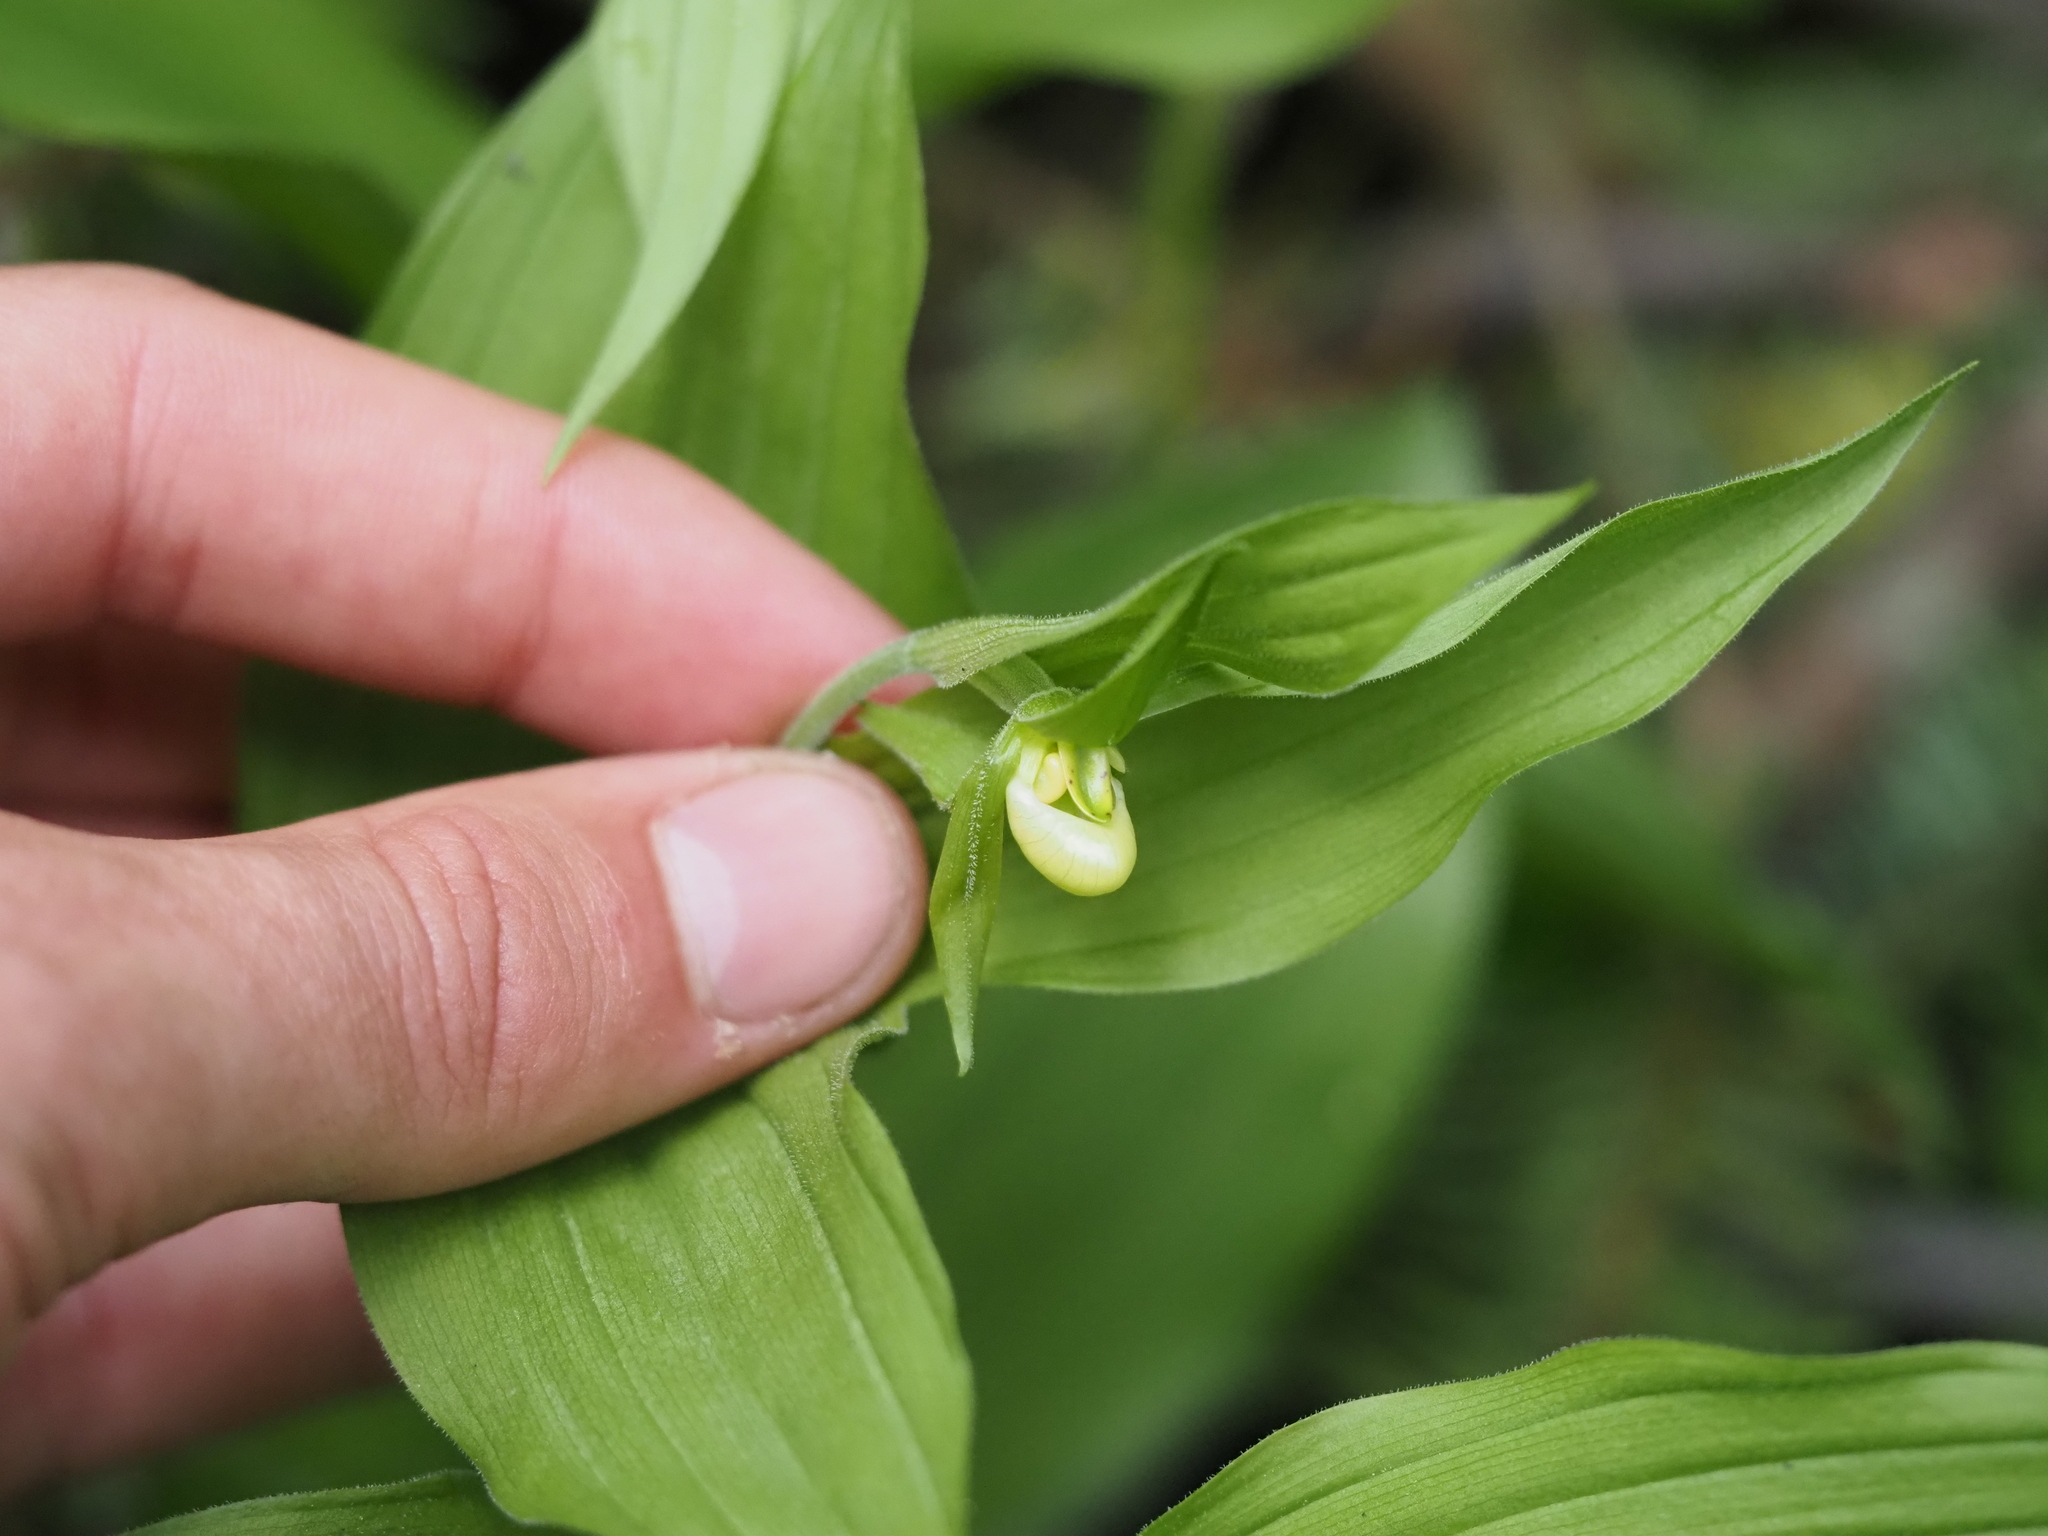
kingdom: Plantae
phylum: Tracheophyta
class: Liliopsida
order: Asparagales
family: Orchidaceae
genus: Cypripedium
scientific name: Cypripedium montanum
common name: Mountain lady's-slipper
